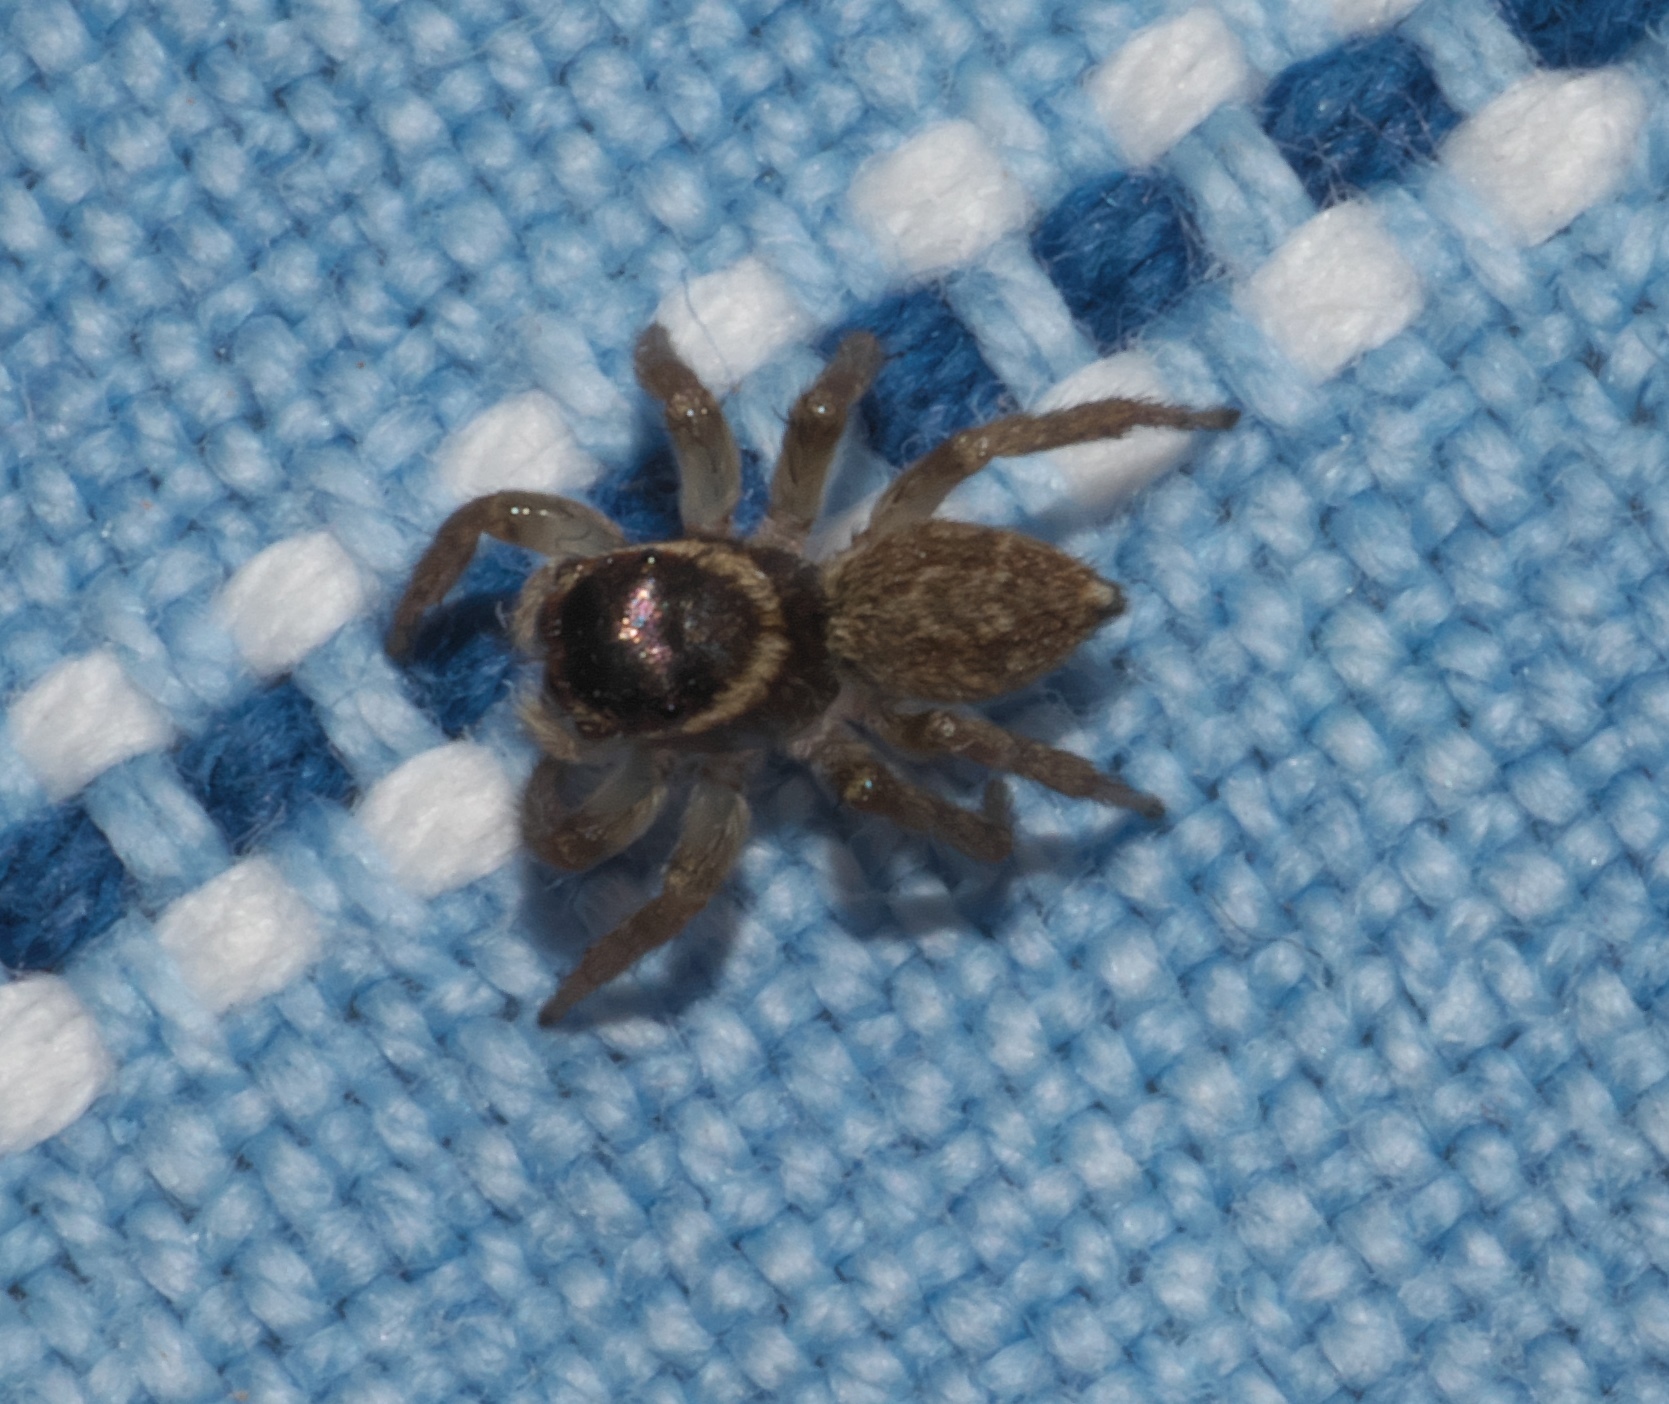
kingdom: Animalia
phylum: Arthropoda
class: Arachnida
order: Araneae
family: Salticidae
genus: Maratus
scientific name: Maratus griseus
